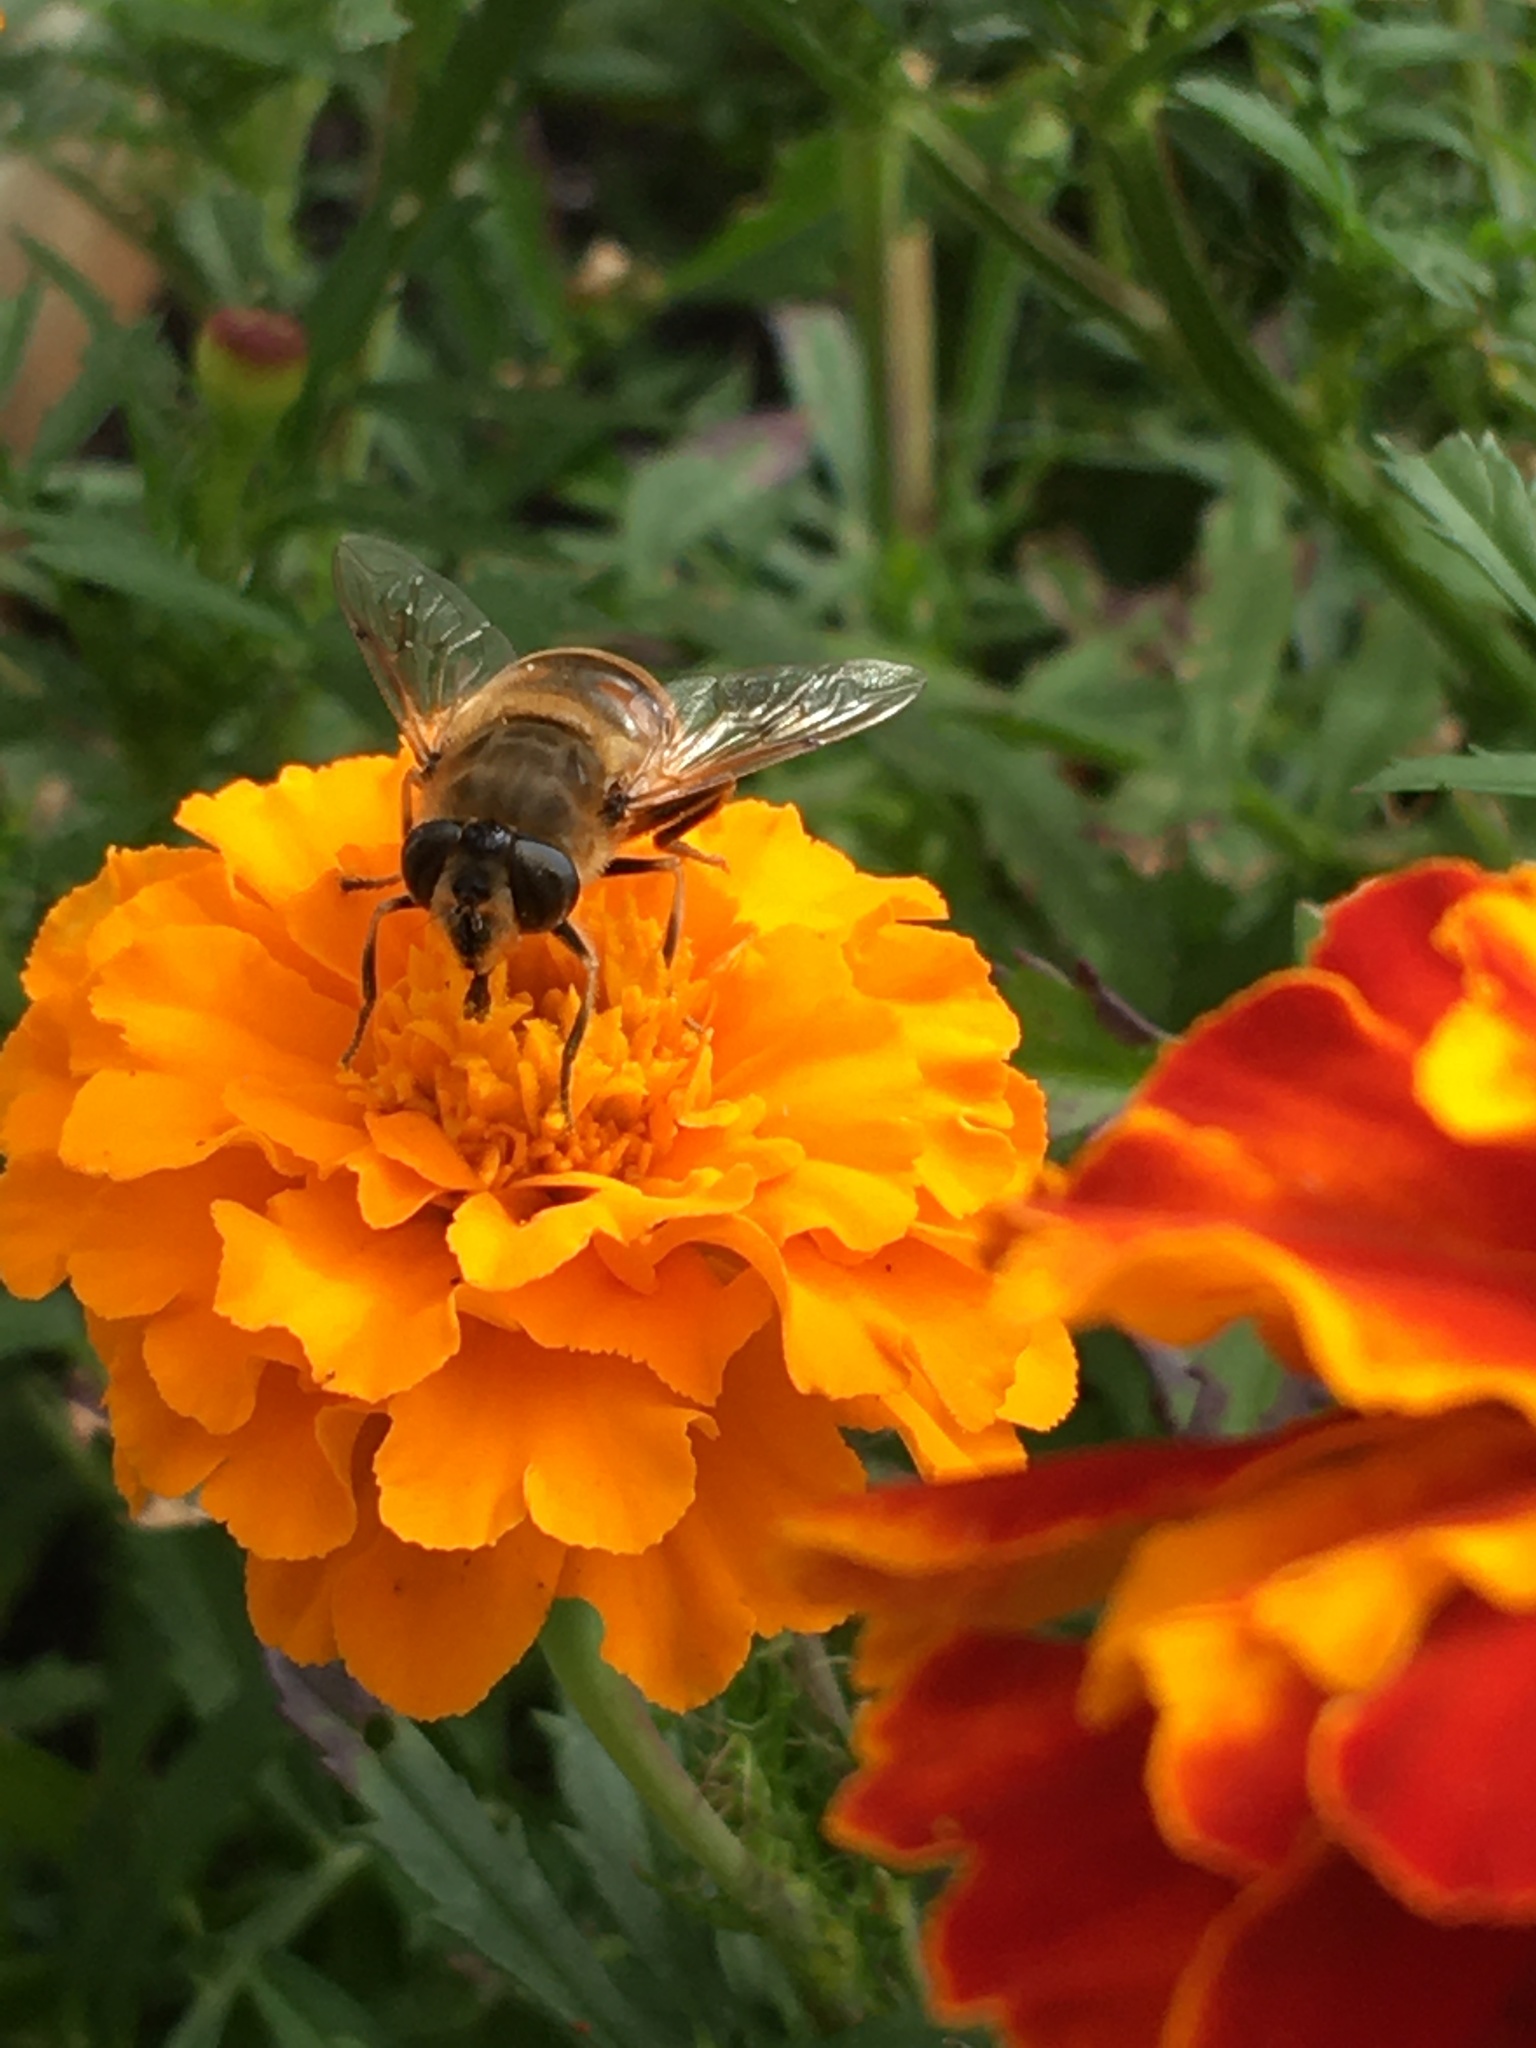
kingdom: Animalia
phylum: Arthropoda
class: Insecta
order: Diptera
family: Syrphidae
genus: Eristalis
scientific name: Eristalis tenax
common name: Drone fly
